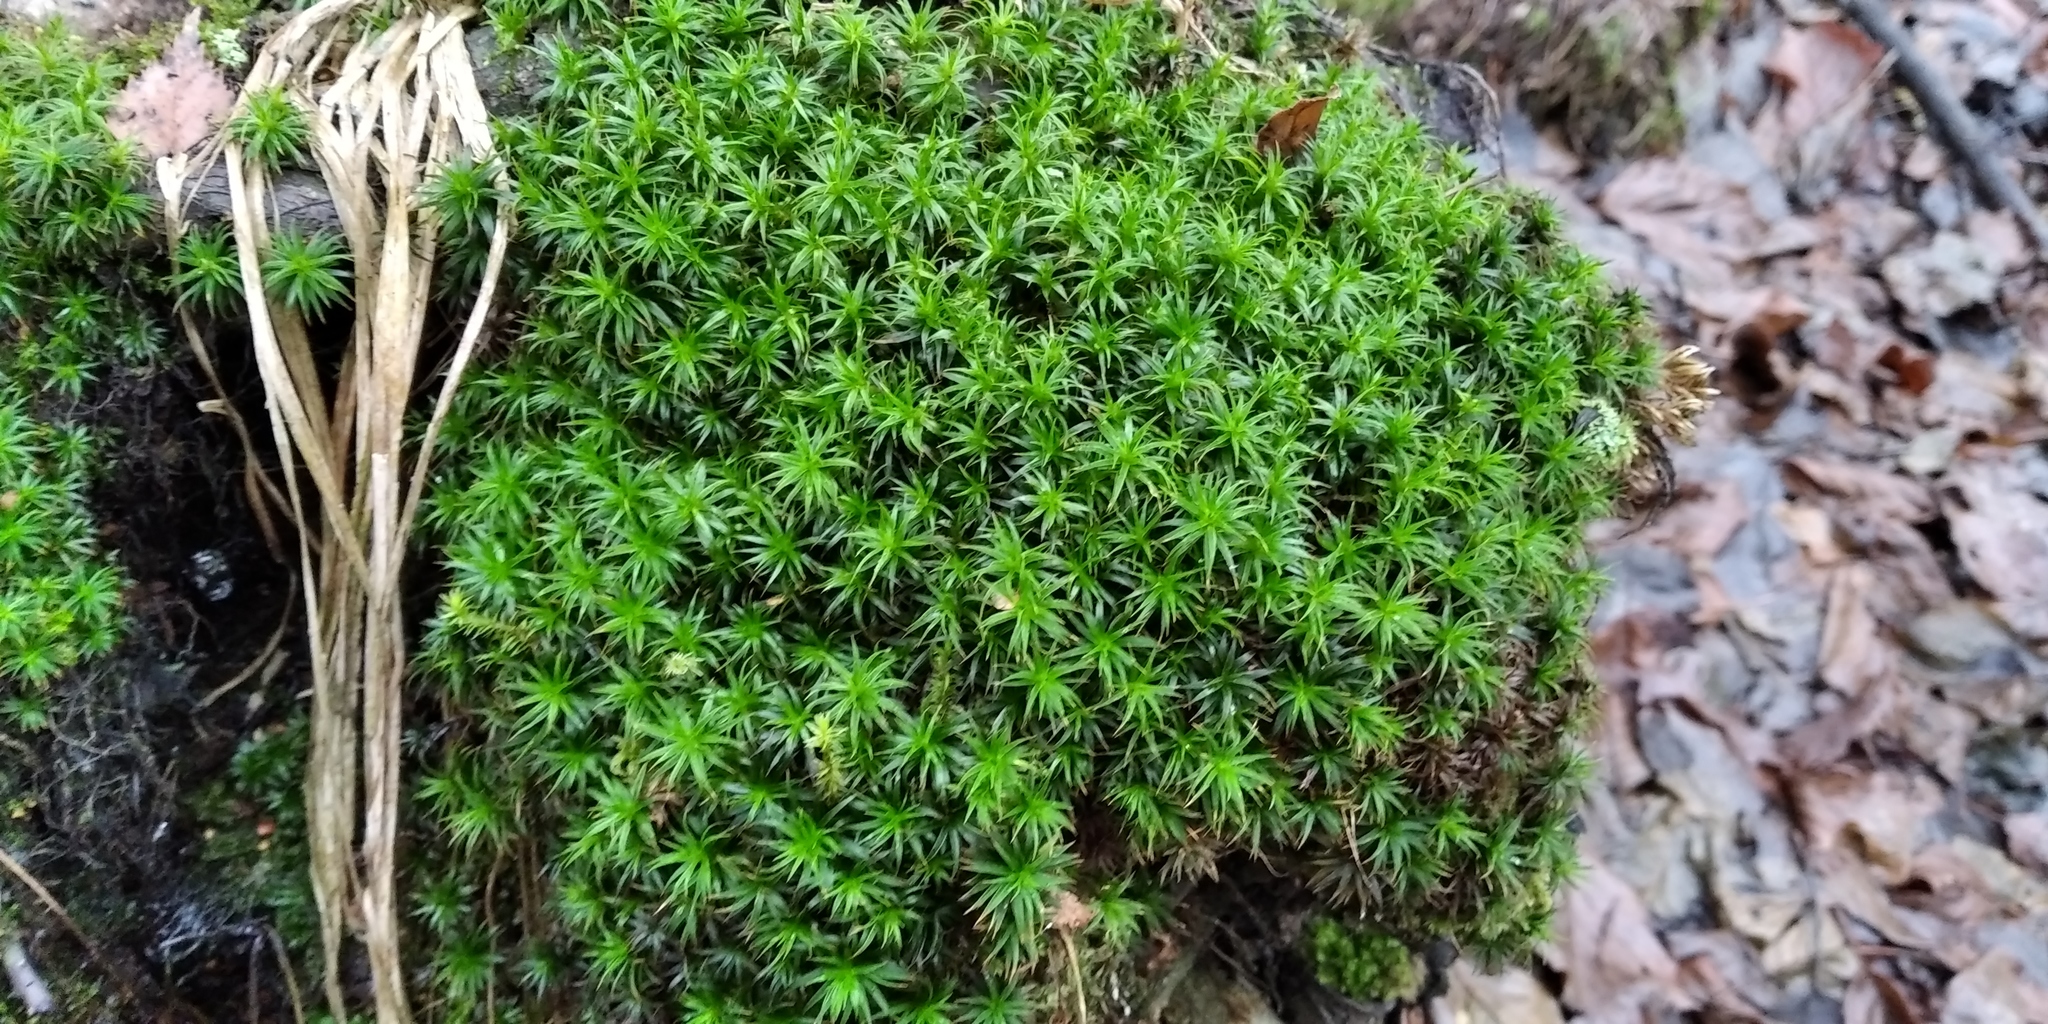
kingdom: Plantae
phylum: Bryophyta
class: Polytrichopsida
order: Polytrichales
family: Polytrichaceae
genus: Polytrichum
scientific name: Polytrichum formosum
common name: Bank haircap moss
